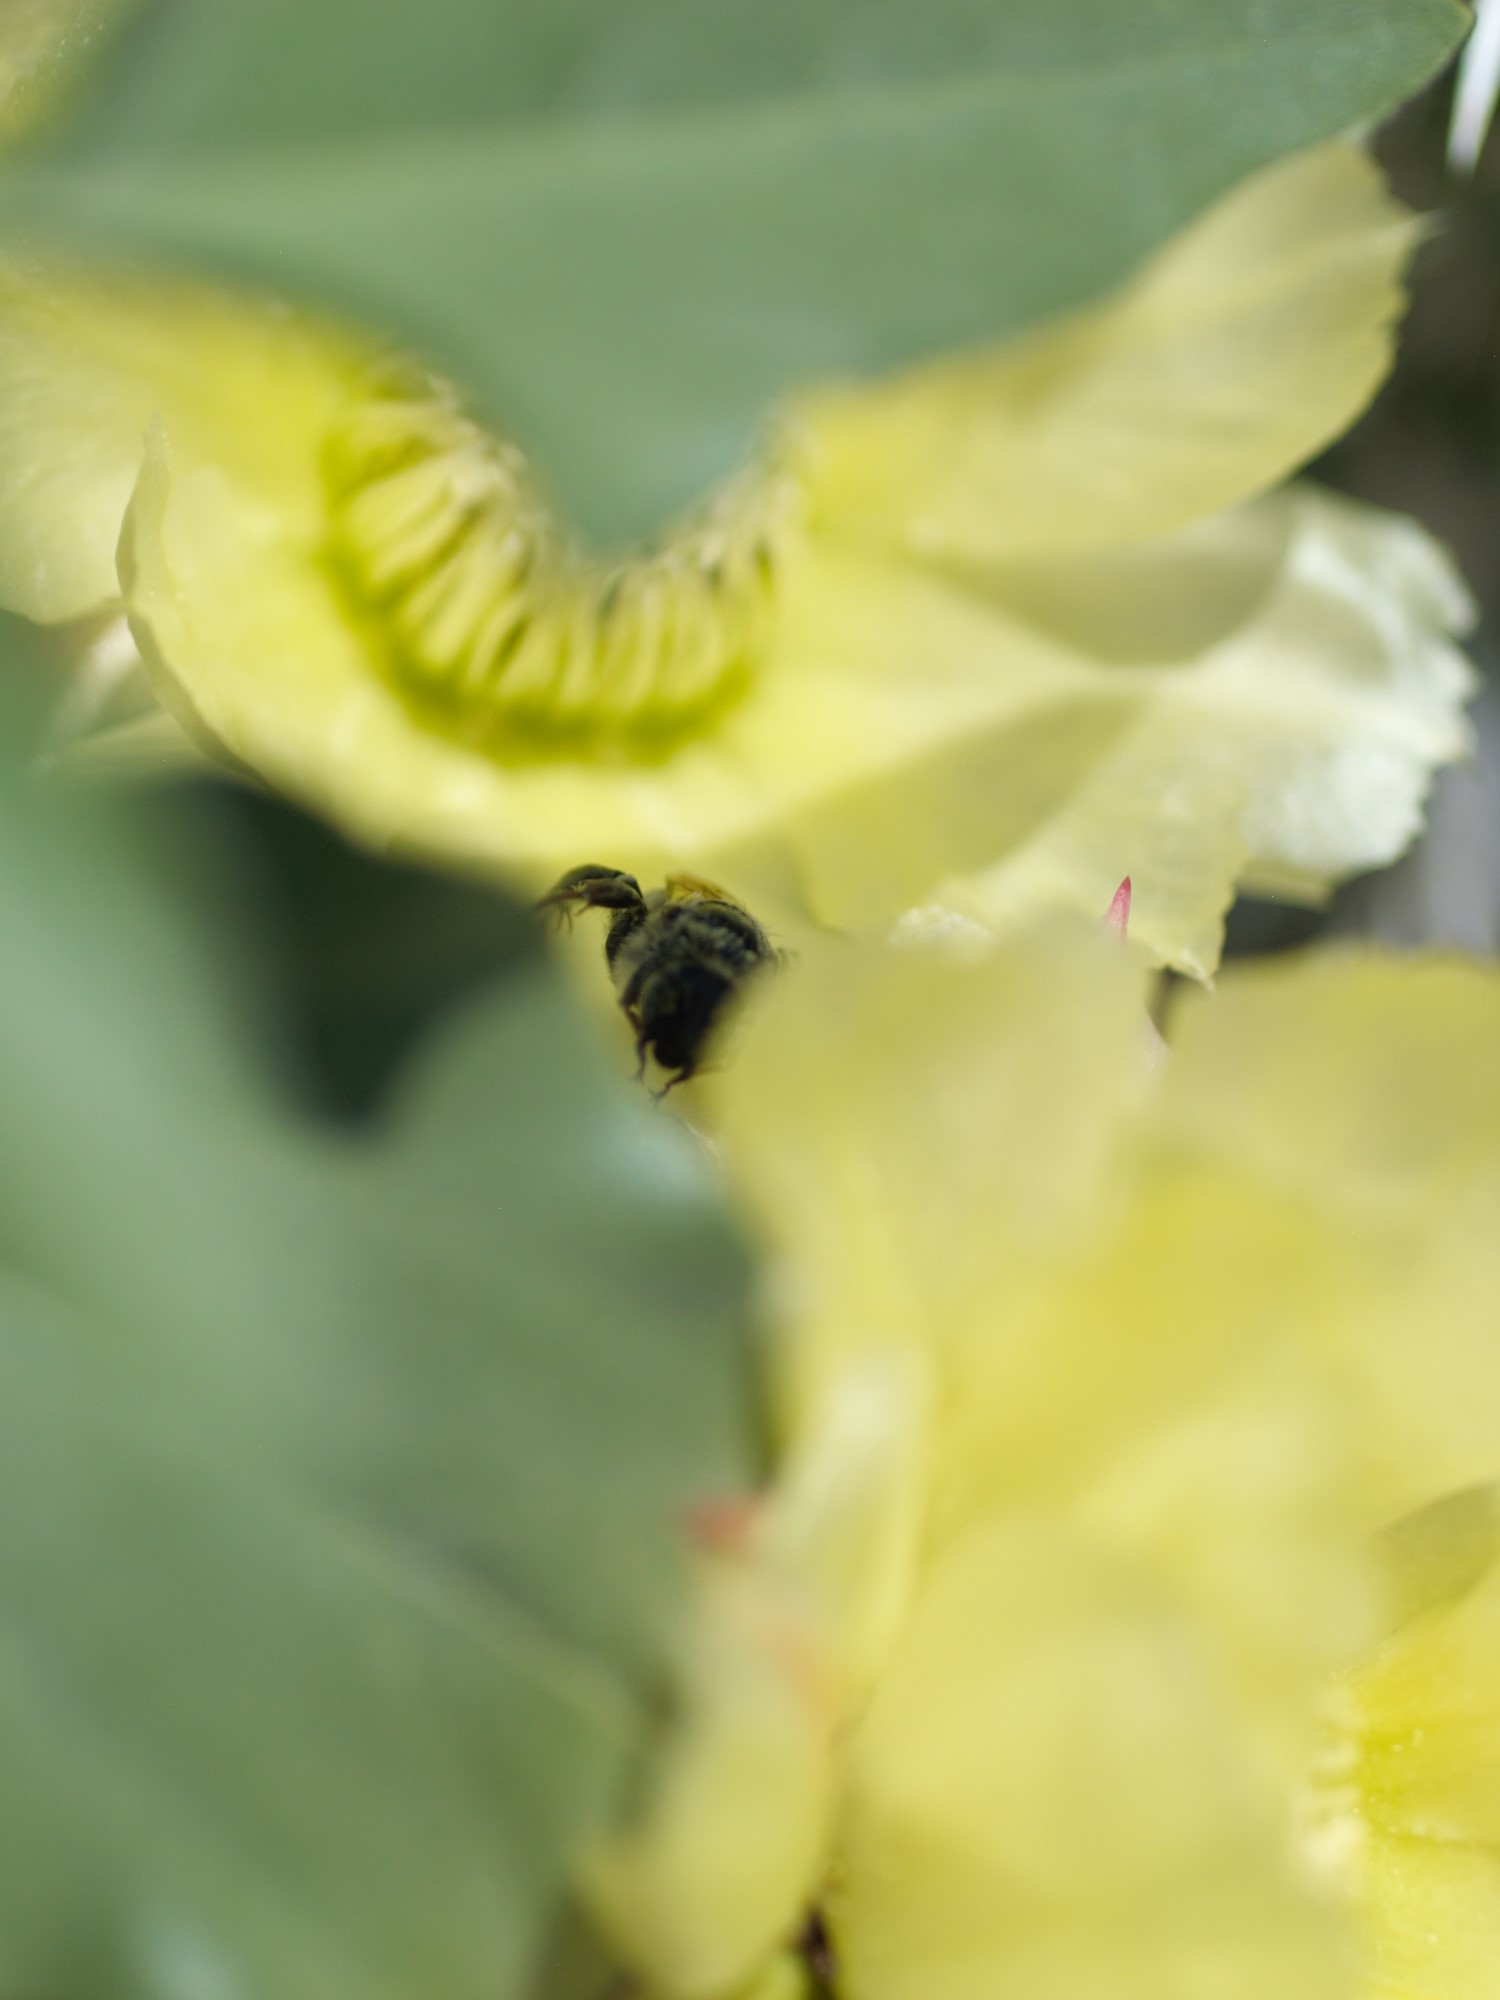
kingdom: Animalia
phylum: Arthropoda
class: Insecta
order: Hymenoptera
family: Apidae
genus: Diadasia
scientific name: Diadasia
